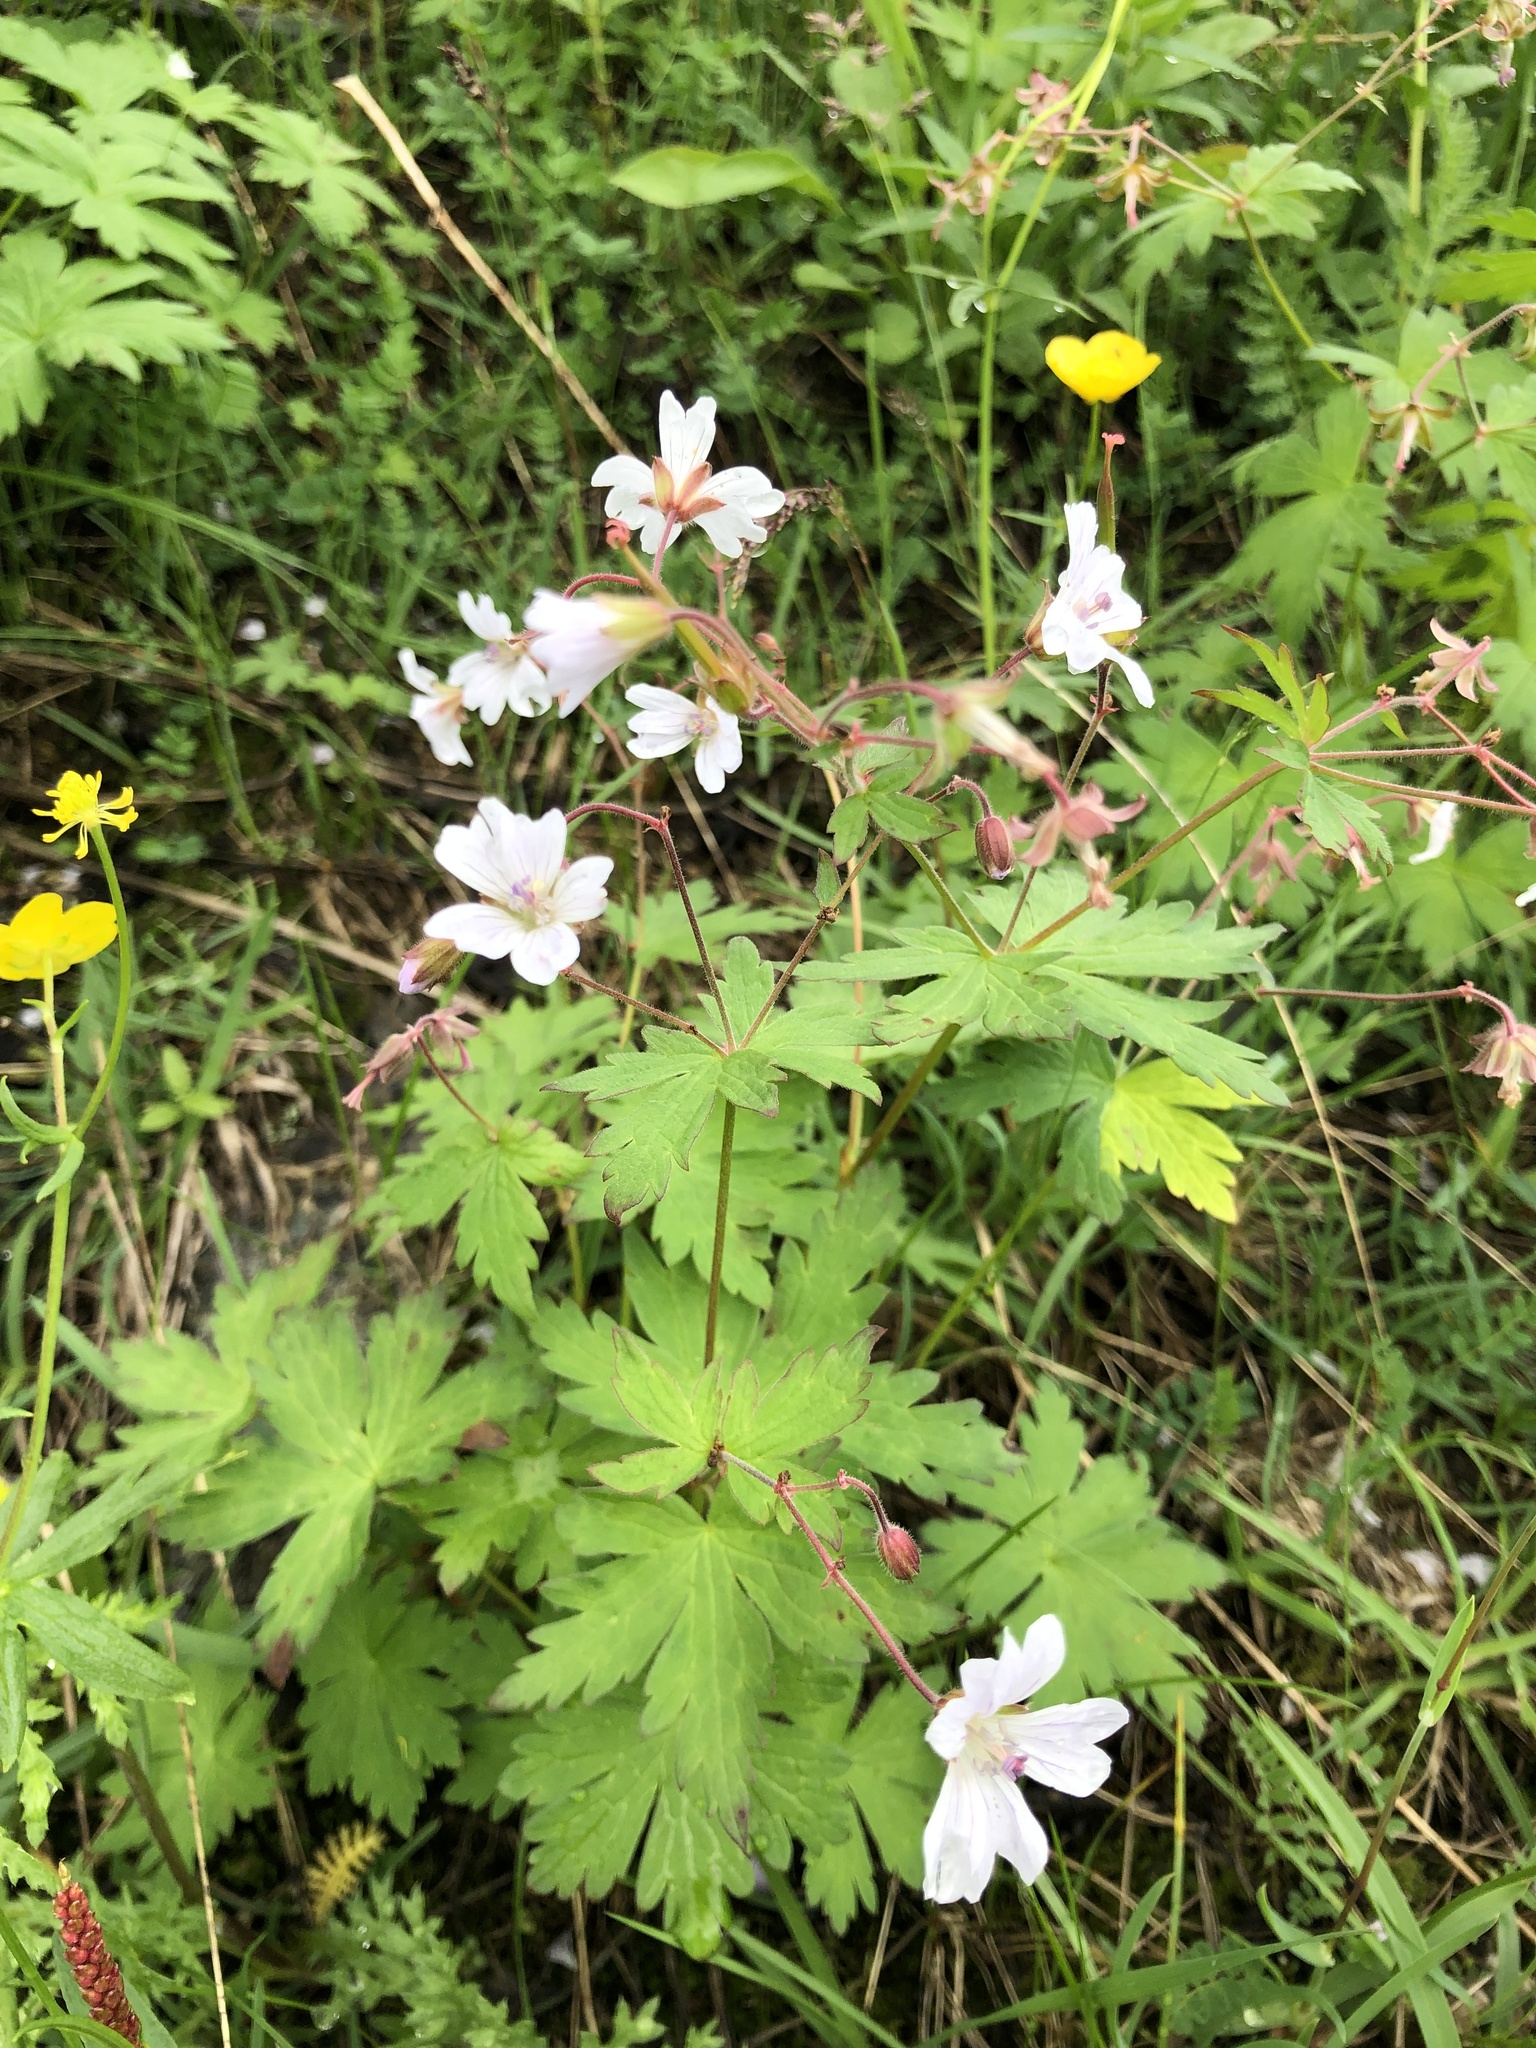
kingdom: Plantae
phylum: Tracheophyta
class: Magnoliopsida
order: Geraniales
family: Geraniaceae
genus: Geranium
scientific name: Geranium sylvaticum
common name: Wood crane's-bill
